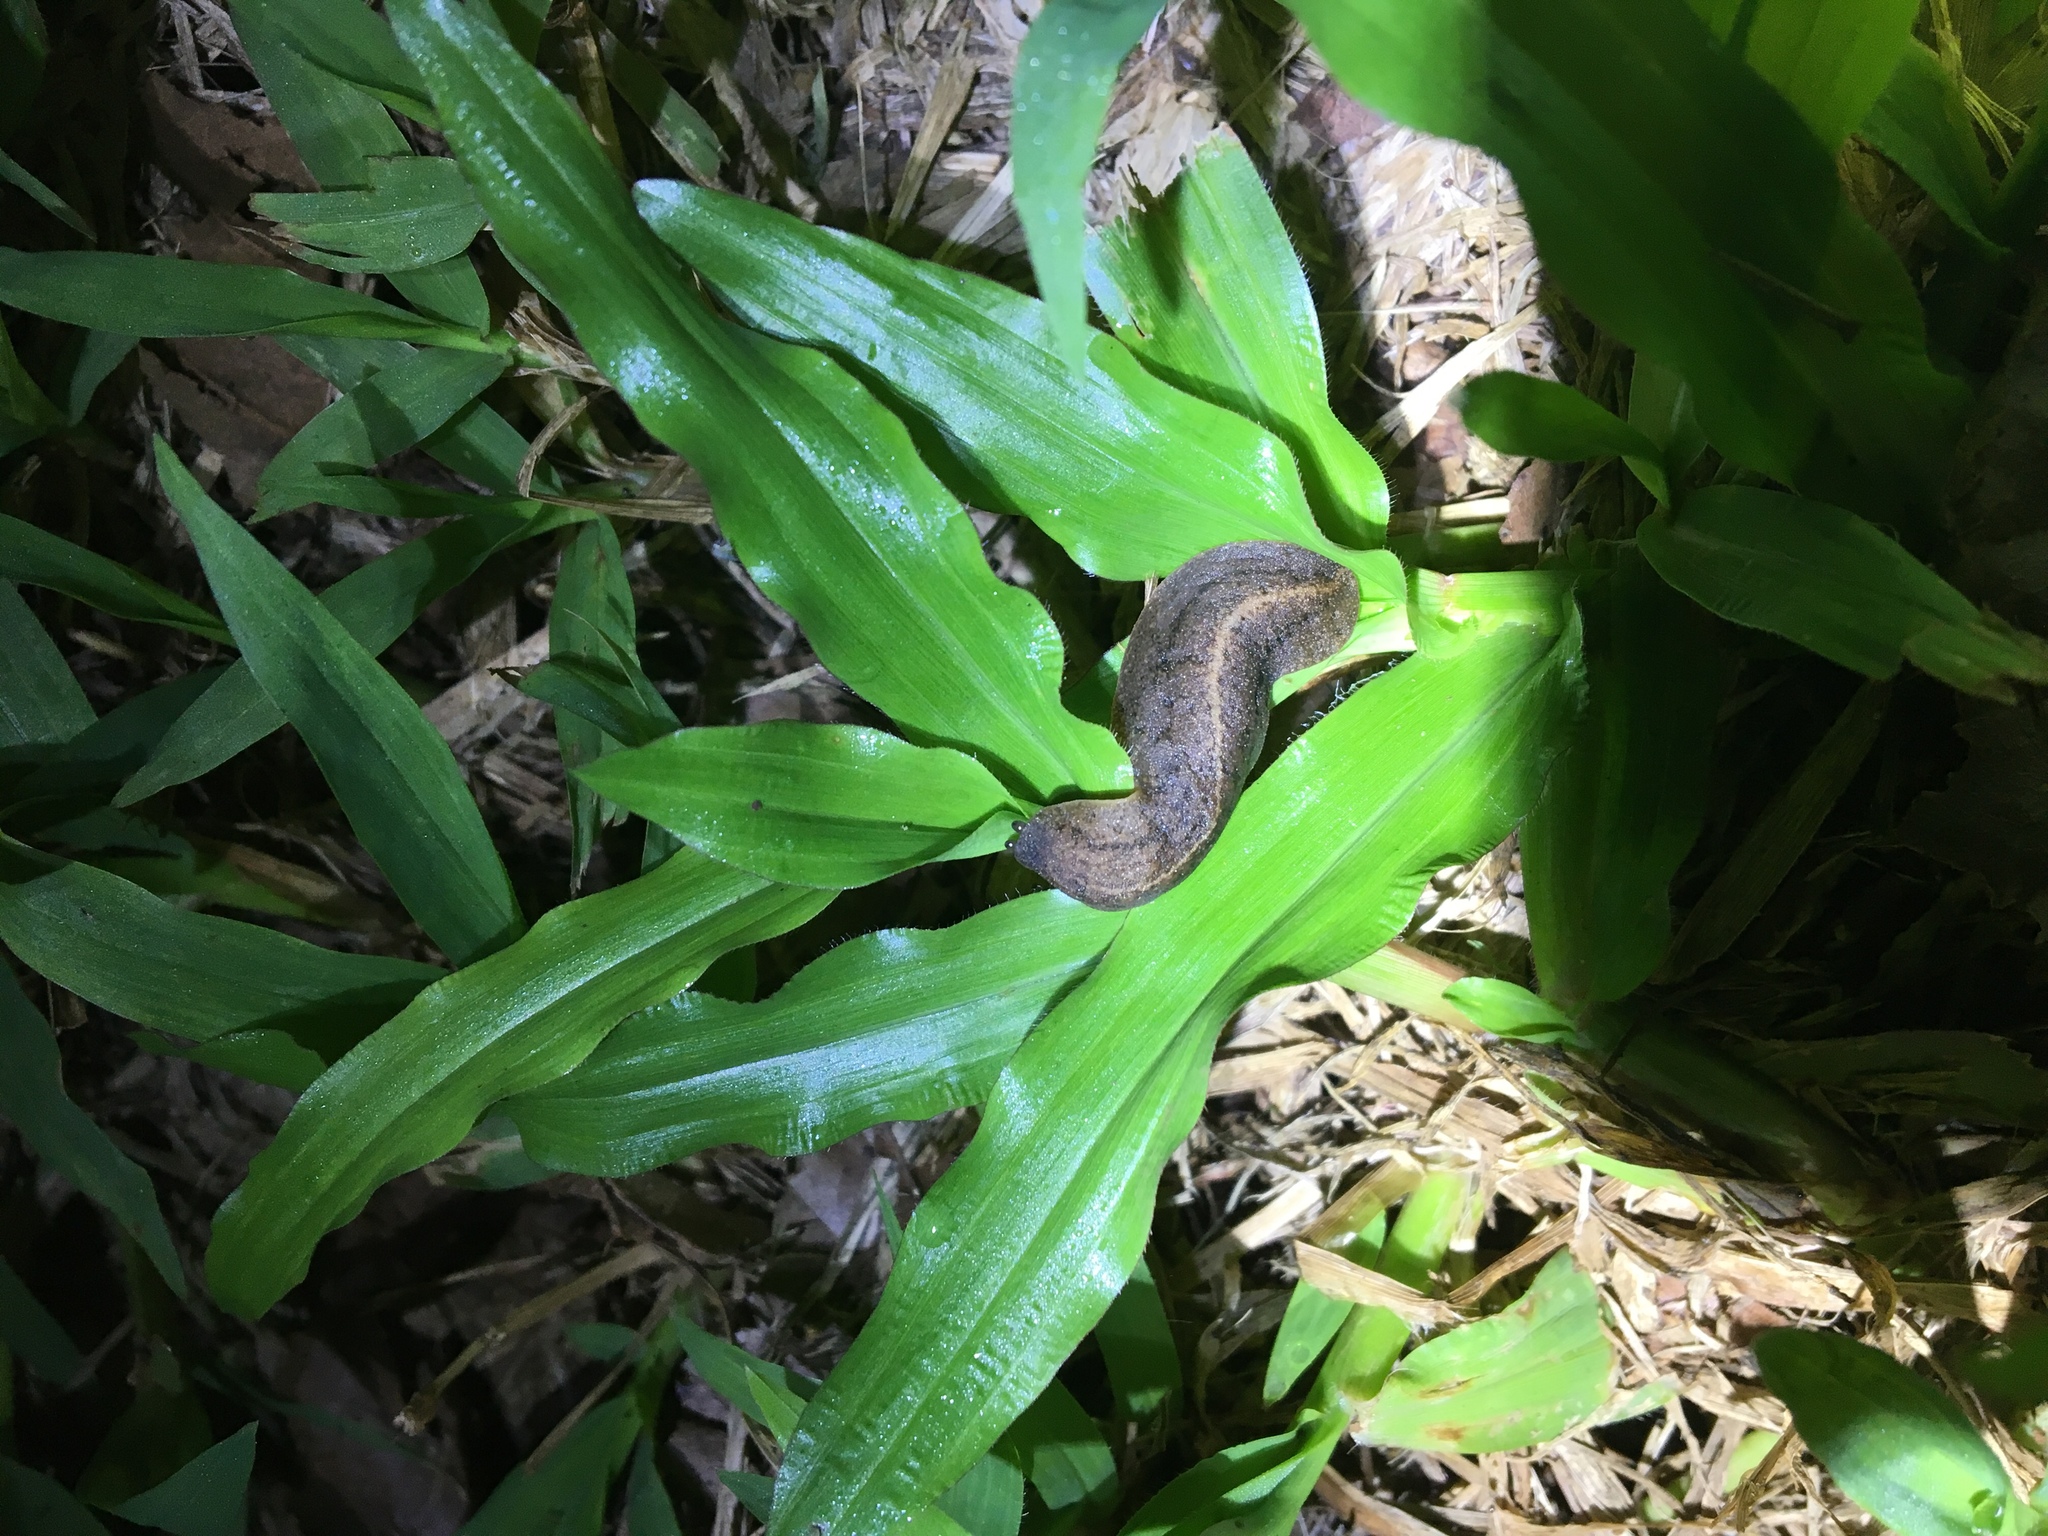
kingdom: Animalia
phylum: Mollusca
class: Gastropoda
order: Systellommatophora
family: Veronicellidae
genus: Laevicaulis
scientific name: Laevicaulis alte
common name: Tropical leatherleaf
